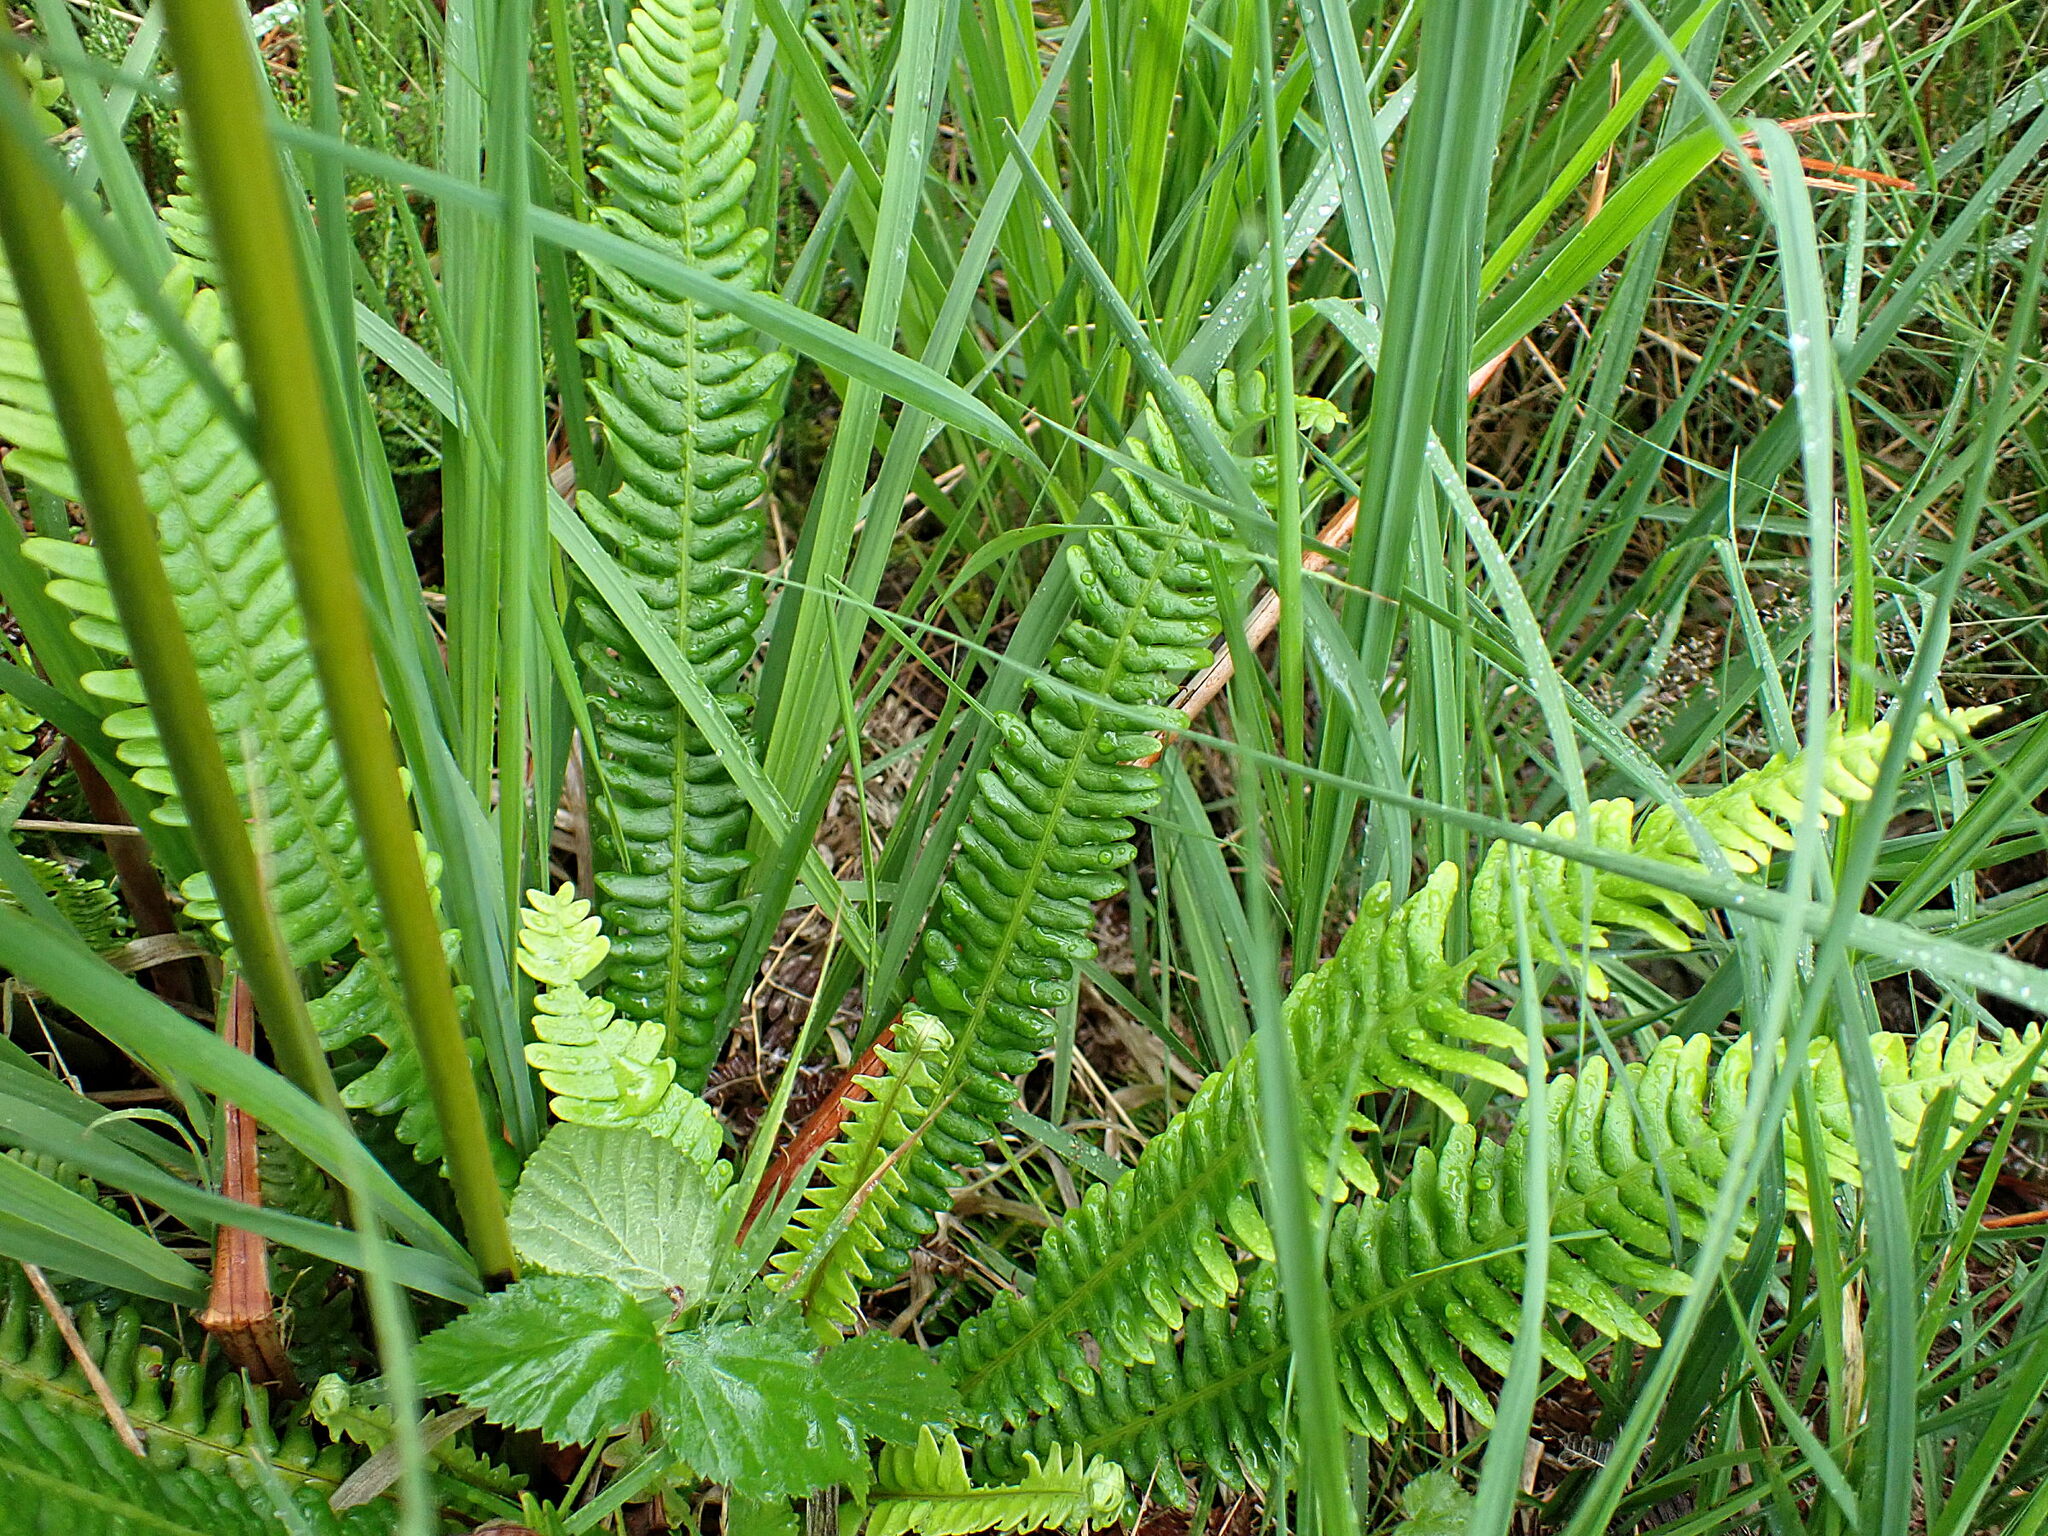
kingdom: Plantae
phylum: Tracheophyta
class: Polypodiopsida
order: Polypodiales
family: Blechnaceae
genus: Struthiopteris
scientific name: Struthiopteris spicant
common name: Deer fern
